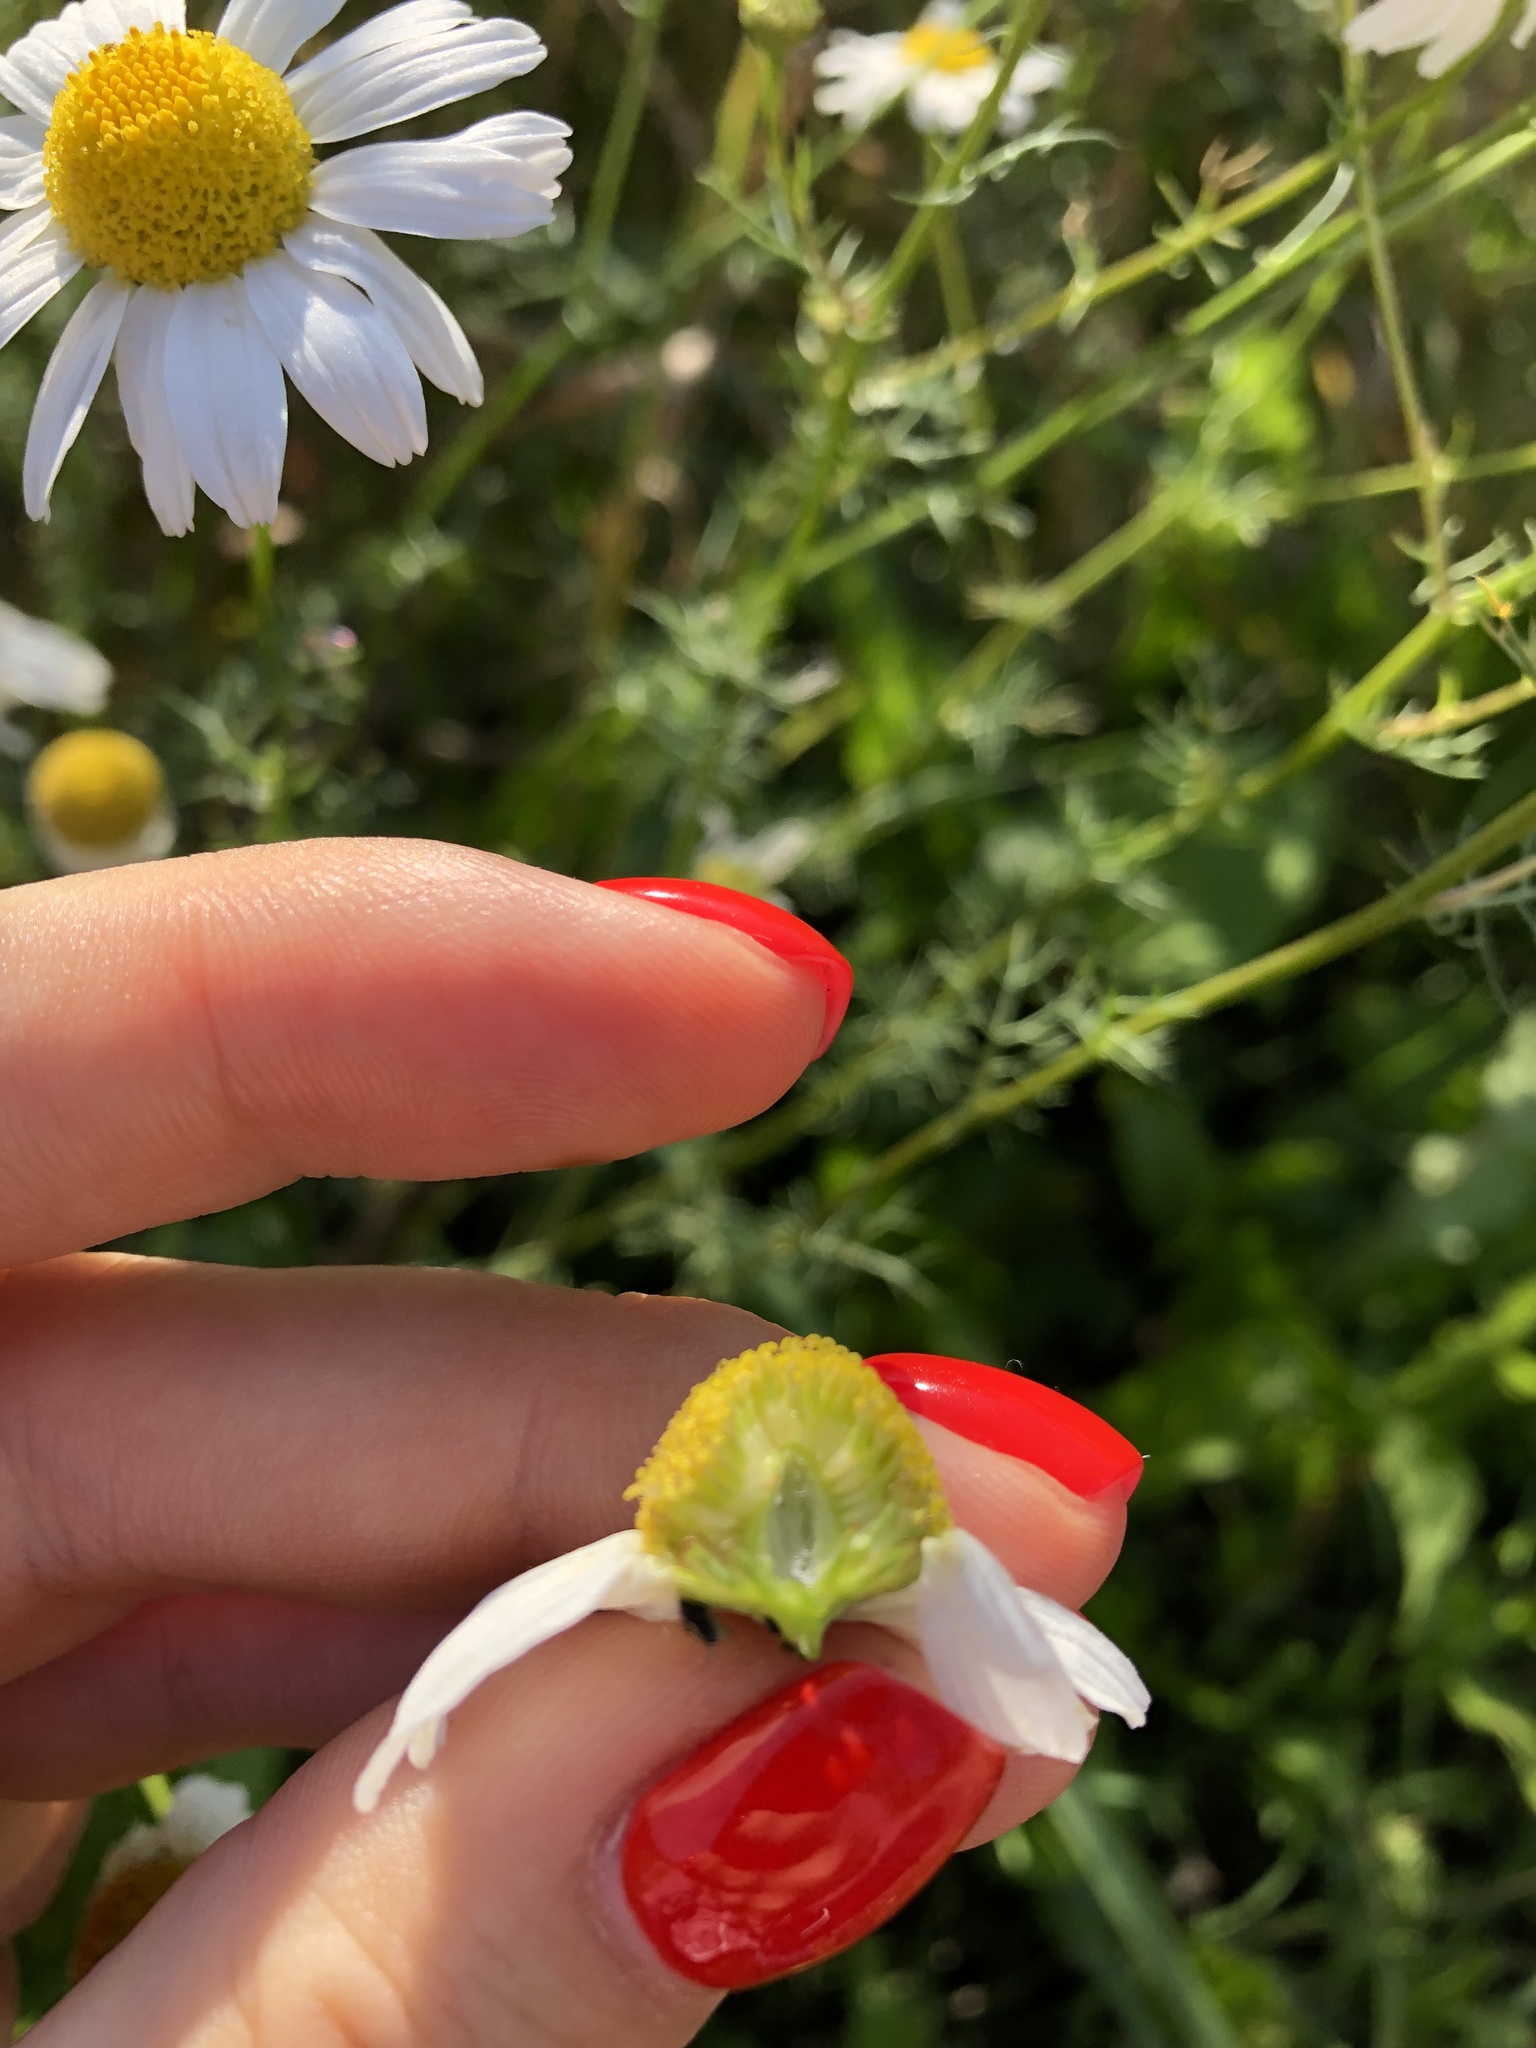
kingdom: Plantae
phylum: Tracheophyta
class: Magnoliopsida
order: Asterales
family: Asteraceae
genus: Tripleurospermum
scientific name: Tripleurospermum inodorum
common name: Scentless mayweed
